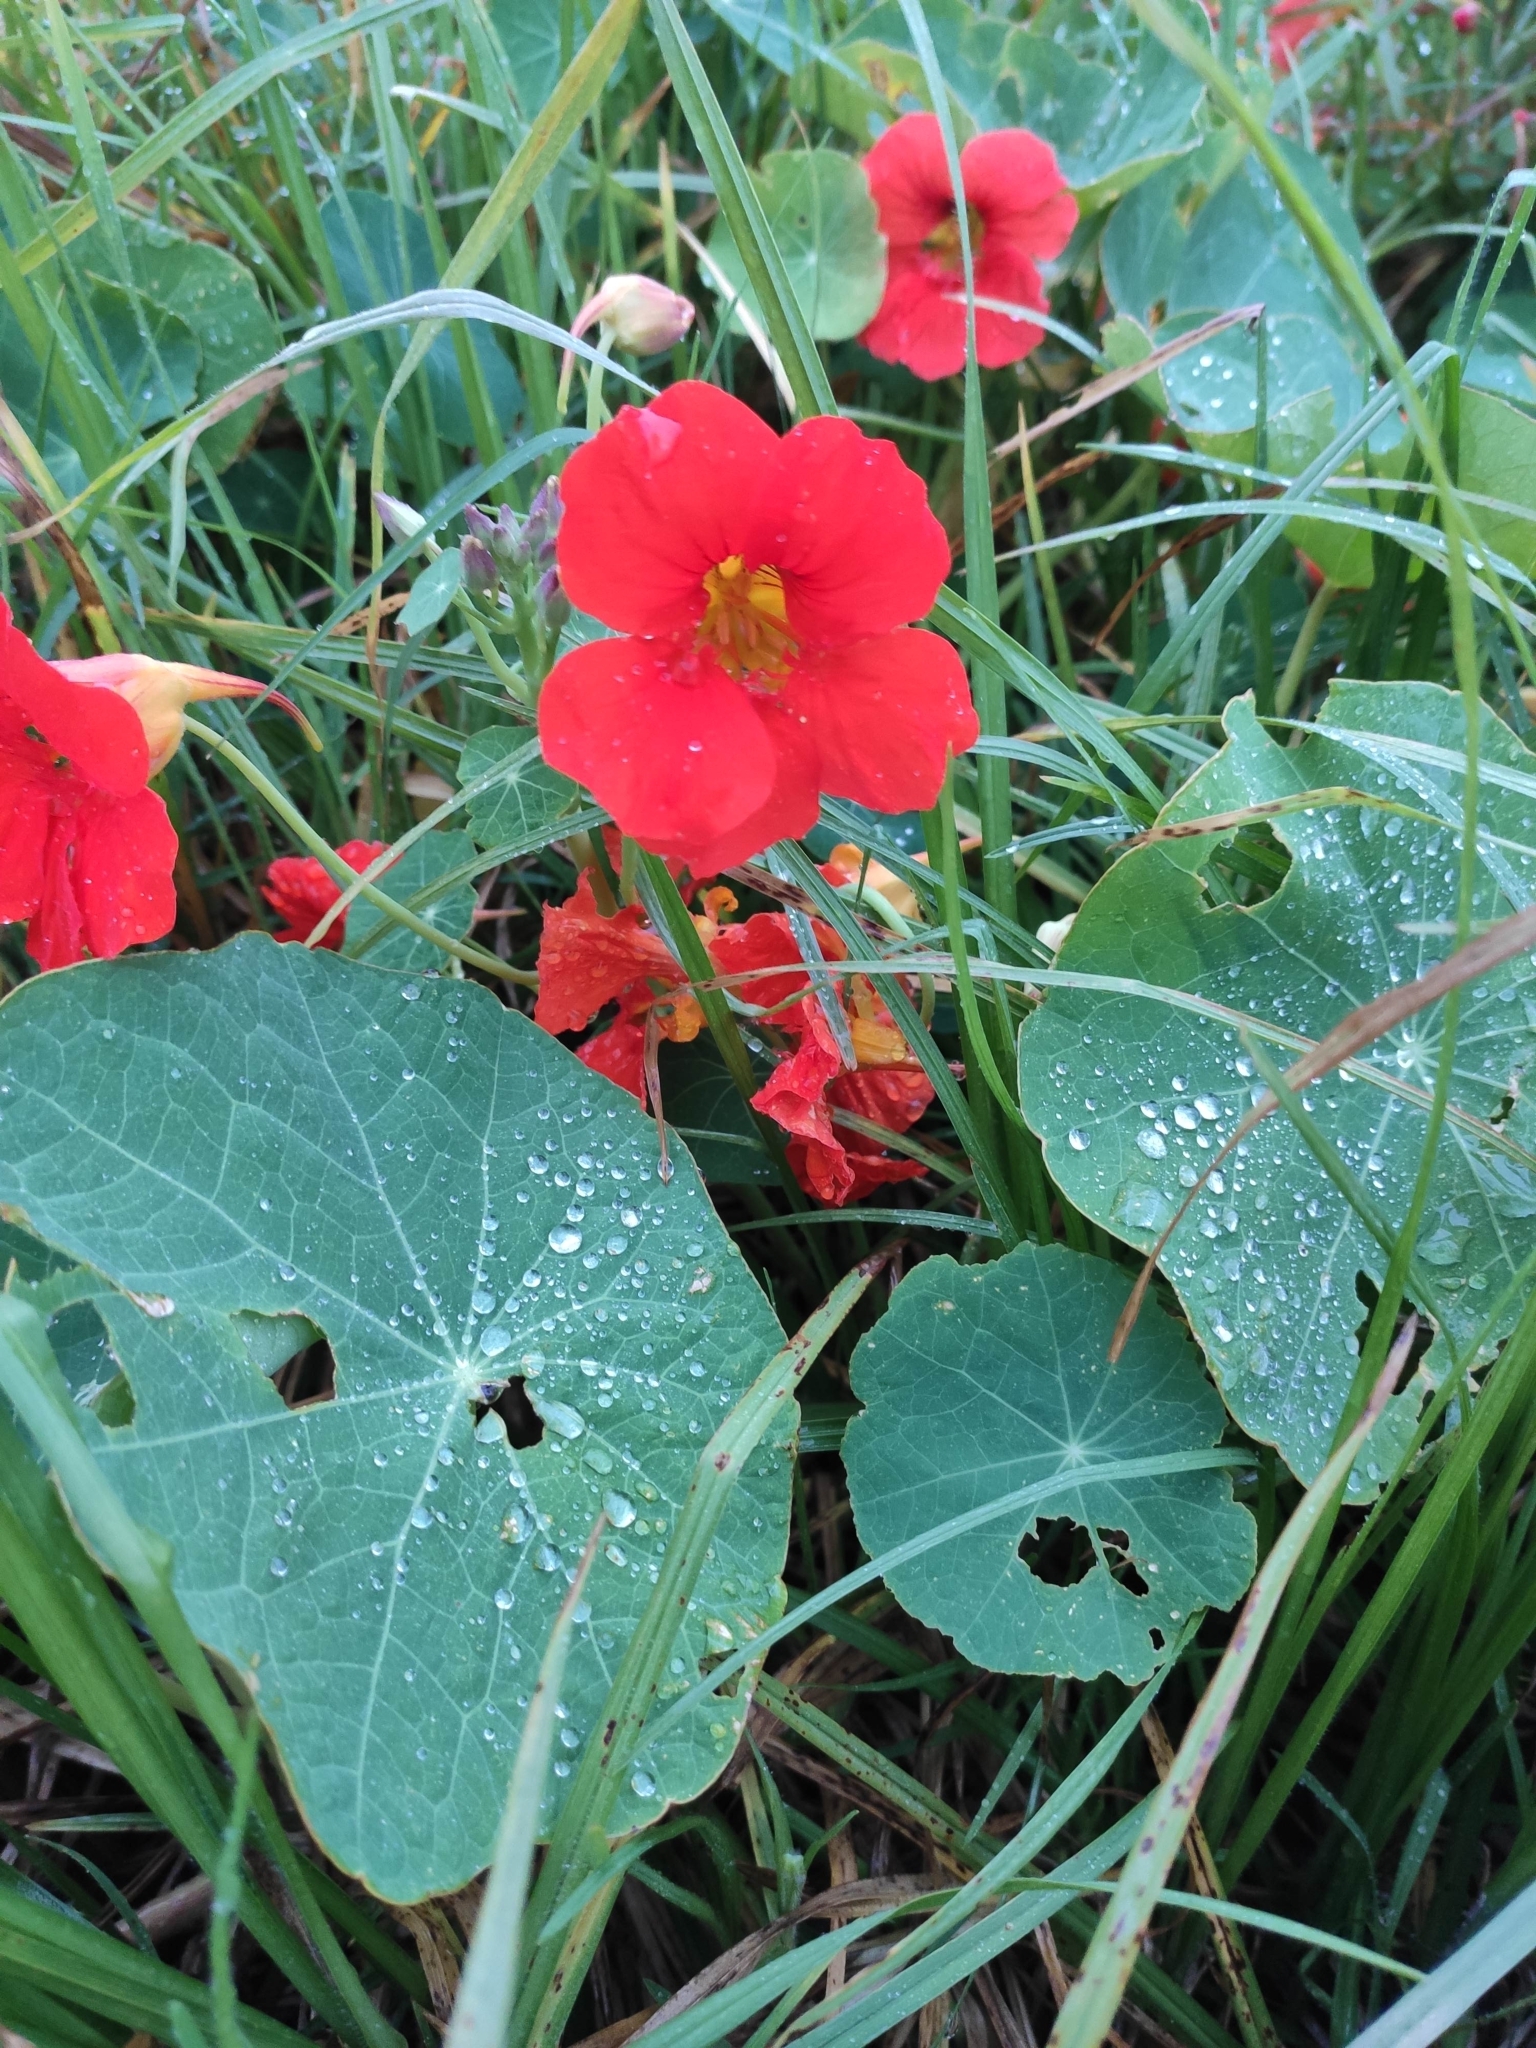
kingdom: Plantae
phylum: Tracheophyta
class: Magnoliopsida
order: Brassicales
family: Tropaeolaceae
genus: Tropaeolum
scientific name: Tropaeolum majus
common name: Nasturtium
